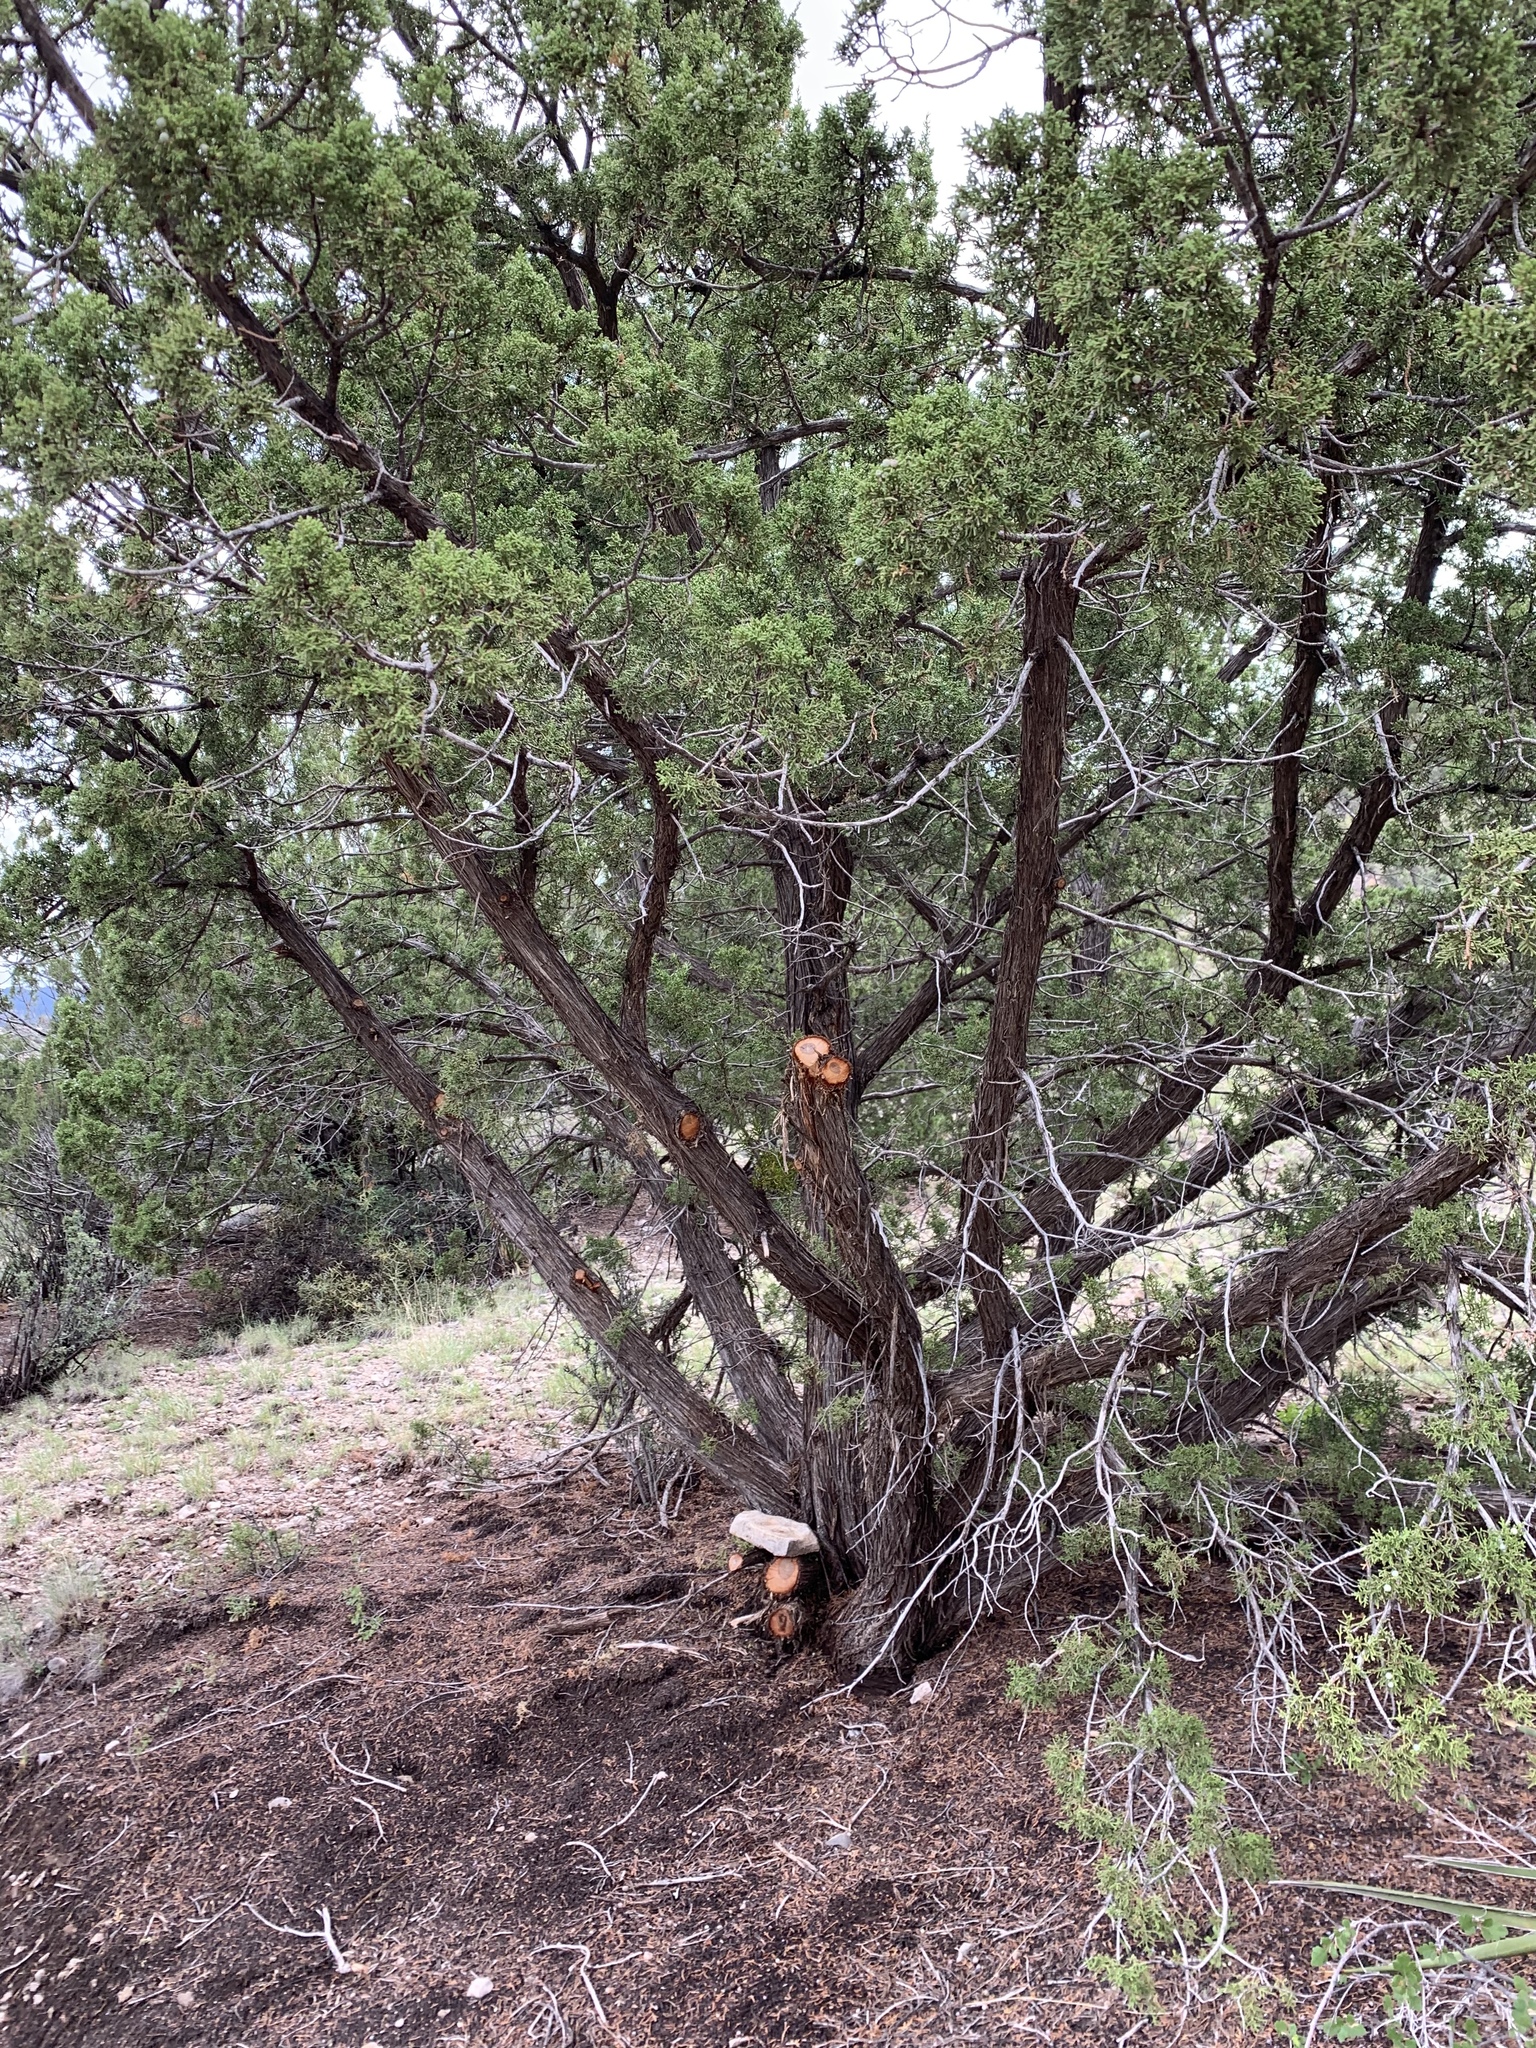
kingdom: Plantae
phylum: Tracheophyta
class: Pinopsida
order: Pinales
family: Cupressaceae
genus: Juniperus
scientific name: Juniperus monosperma
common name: One-seed juniper
